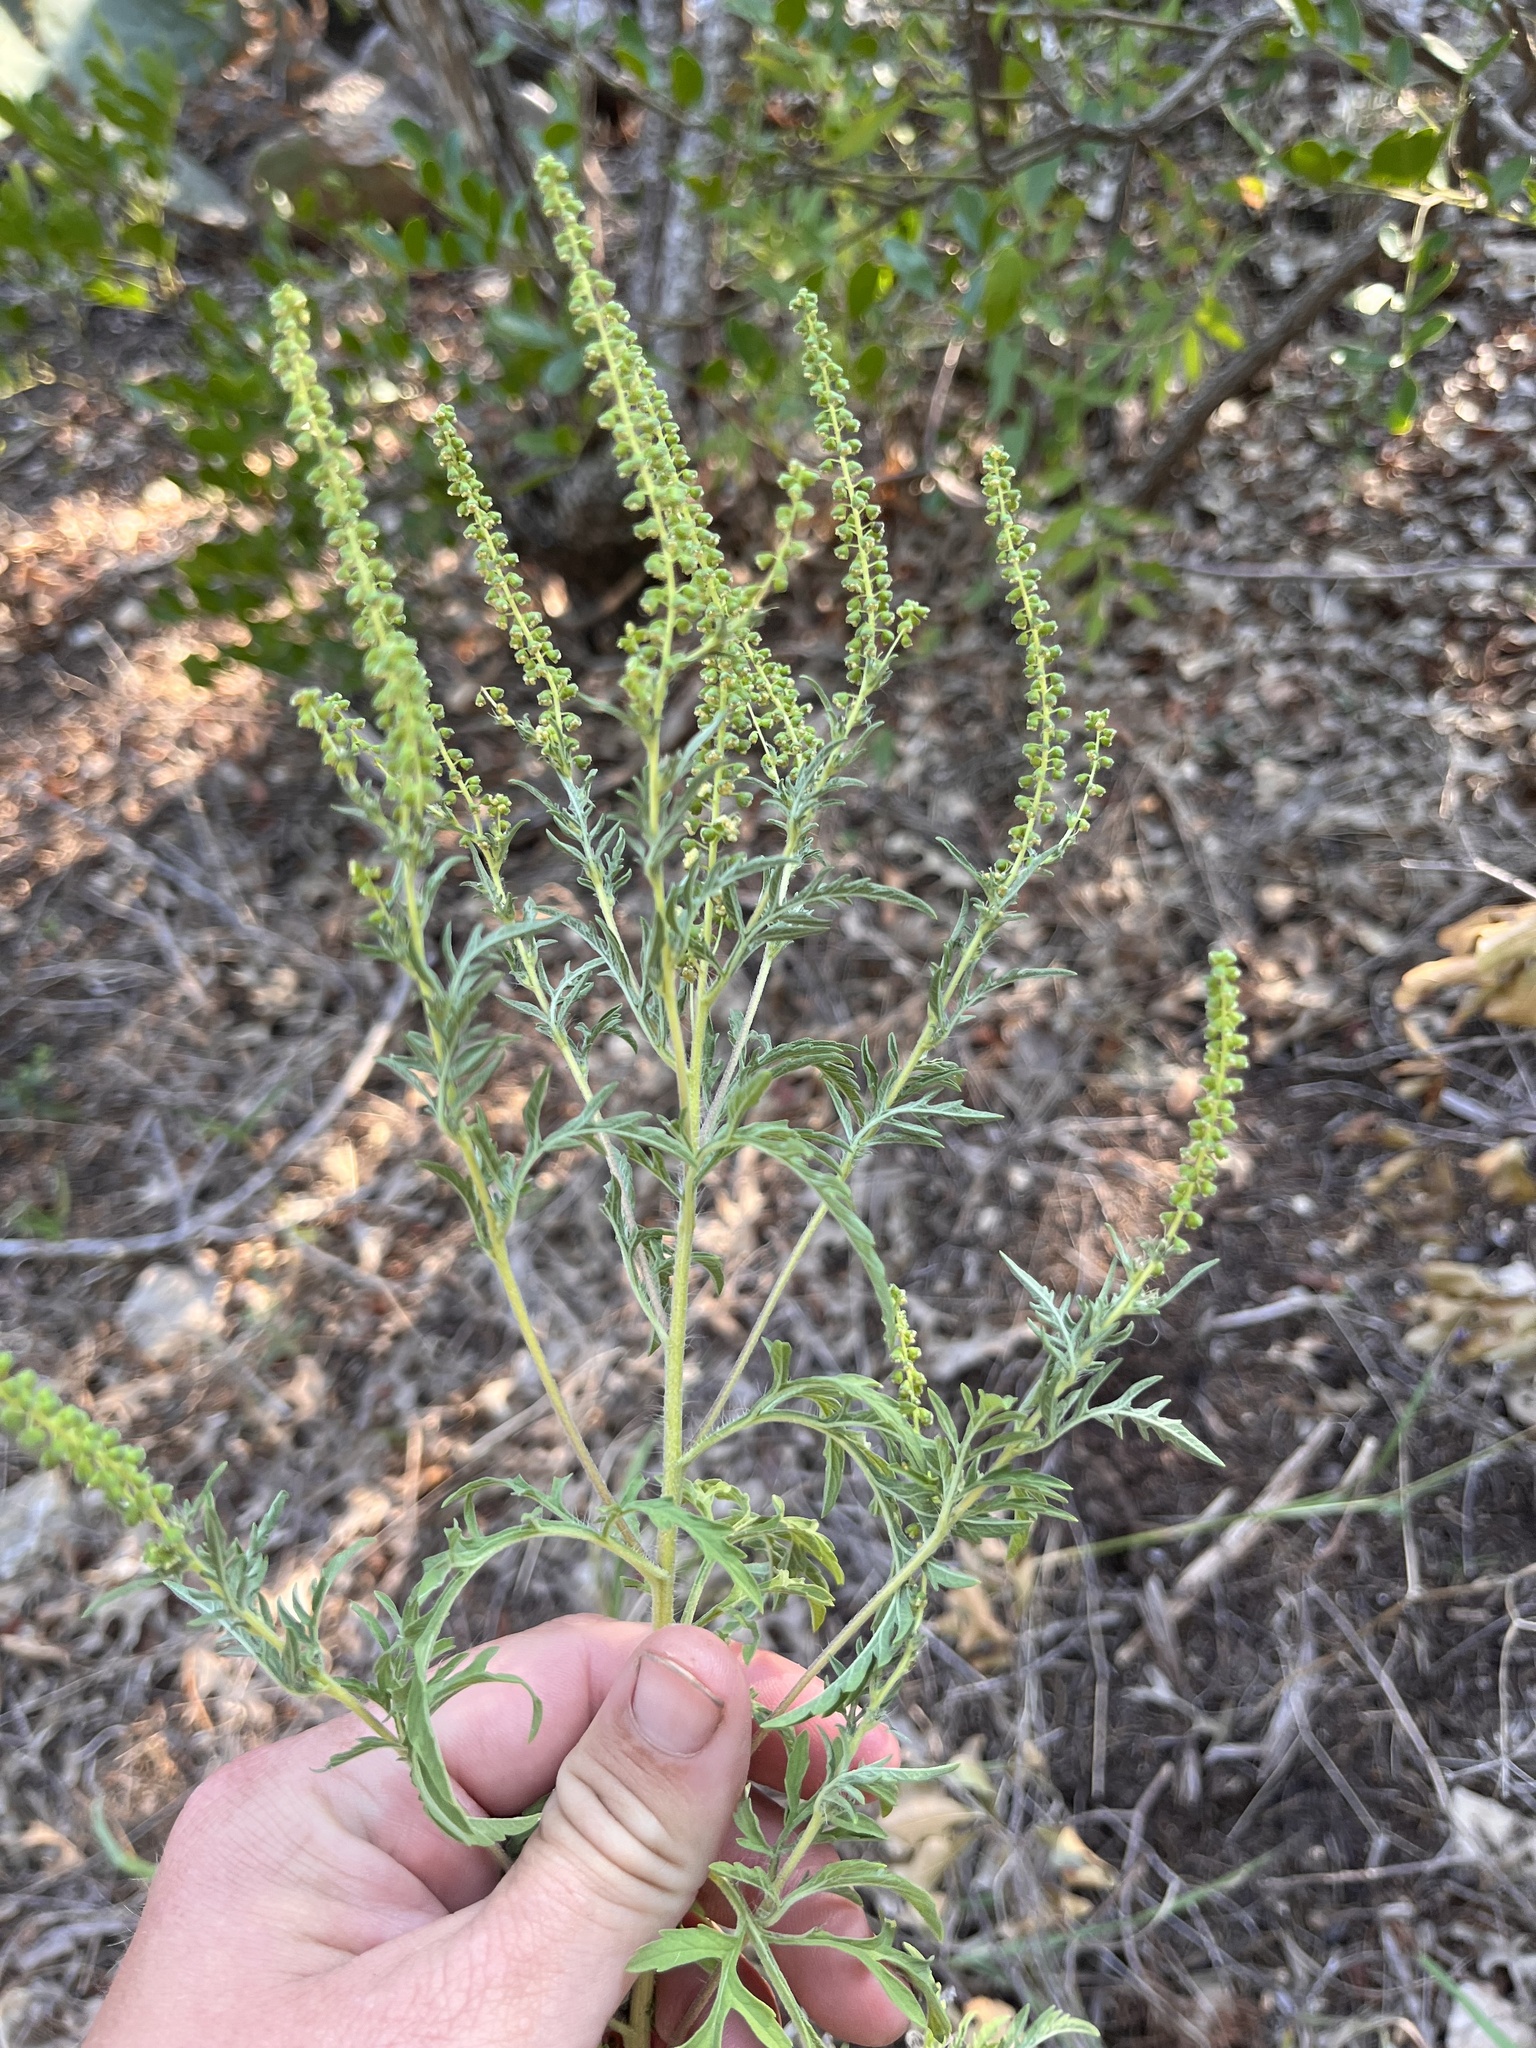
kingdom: Plantae
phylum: Tracheophyta
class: Magnoliopsida
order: Asterales
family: Asteraceae
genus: Ambrosia
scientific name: Ambrosia psilostachya
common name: Perennial ragweed
